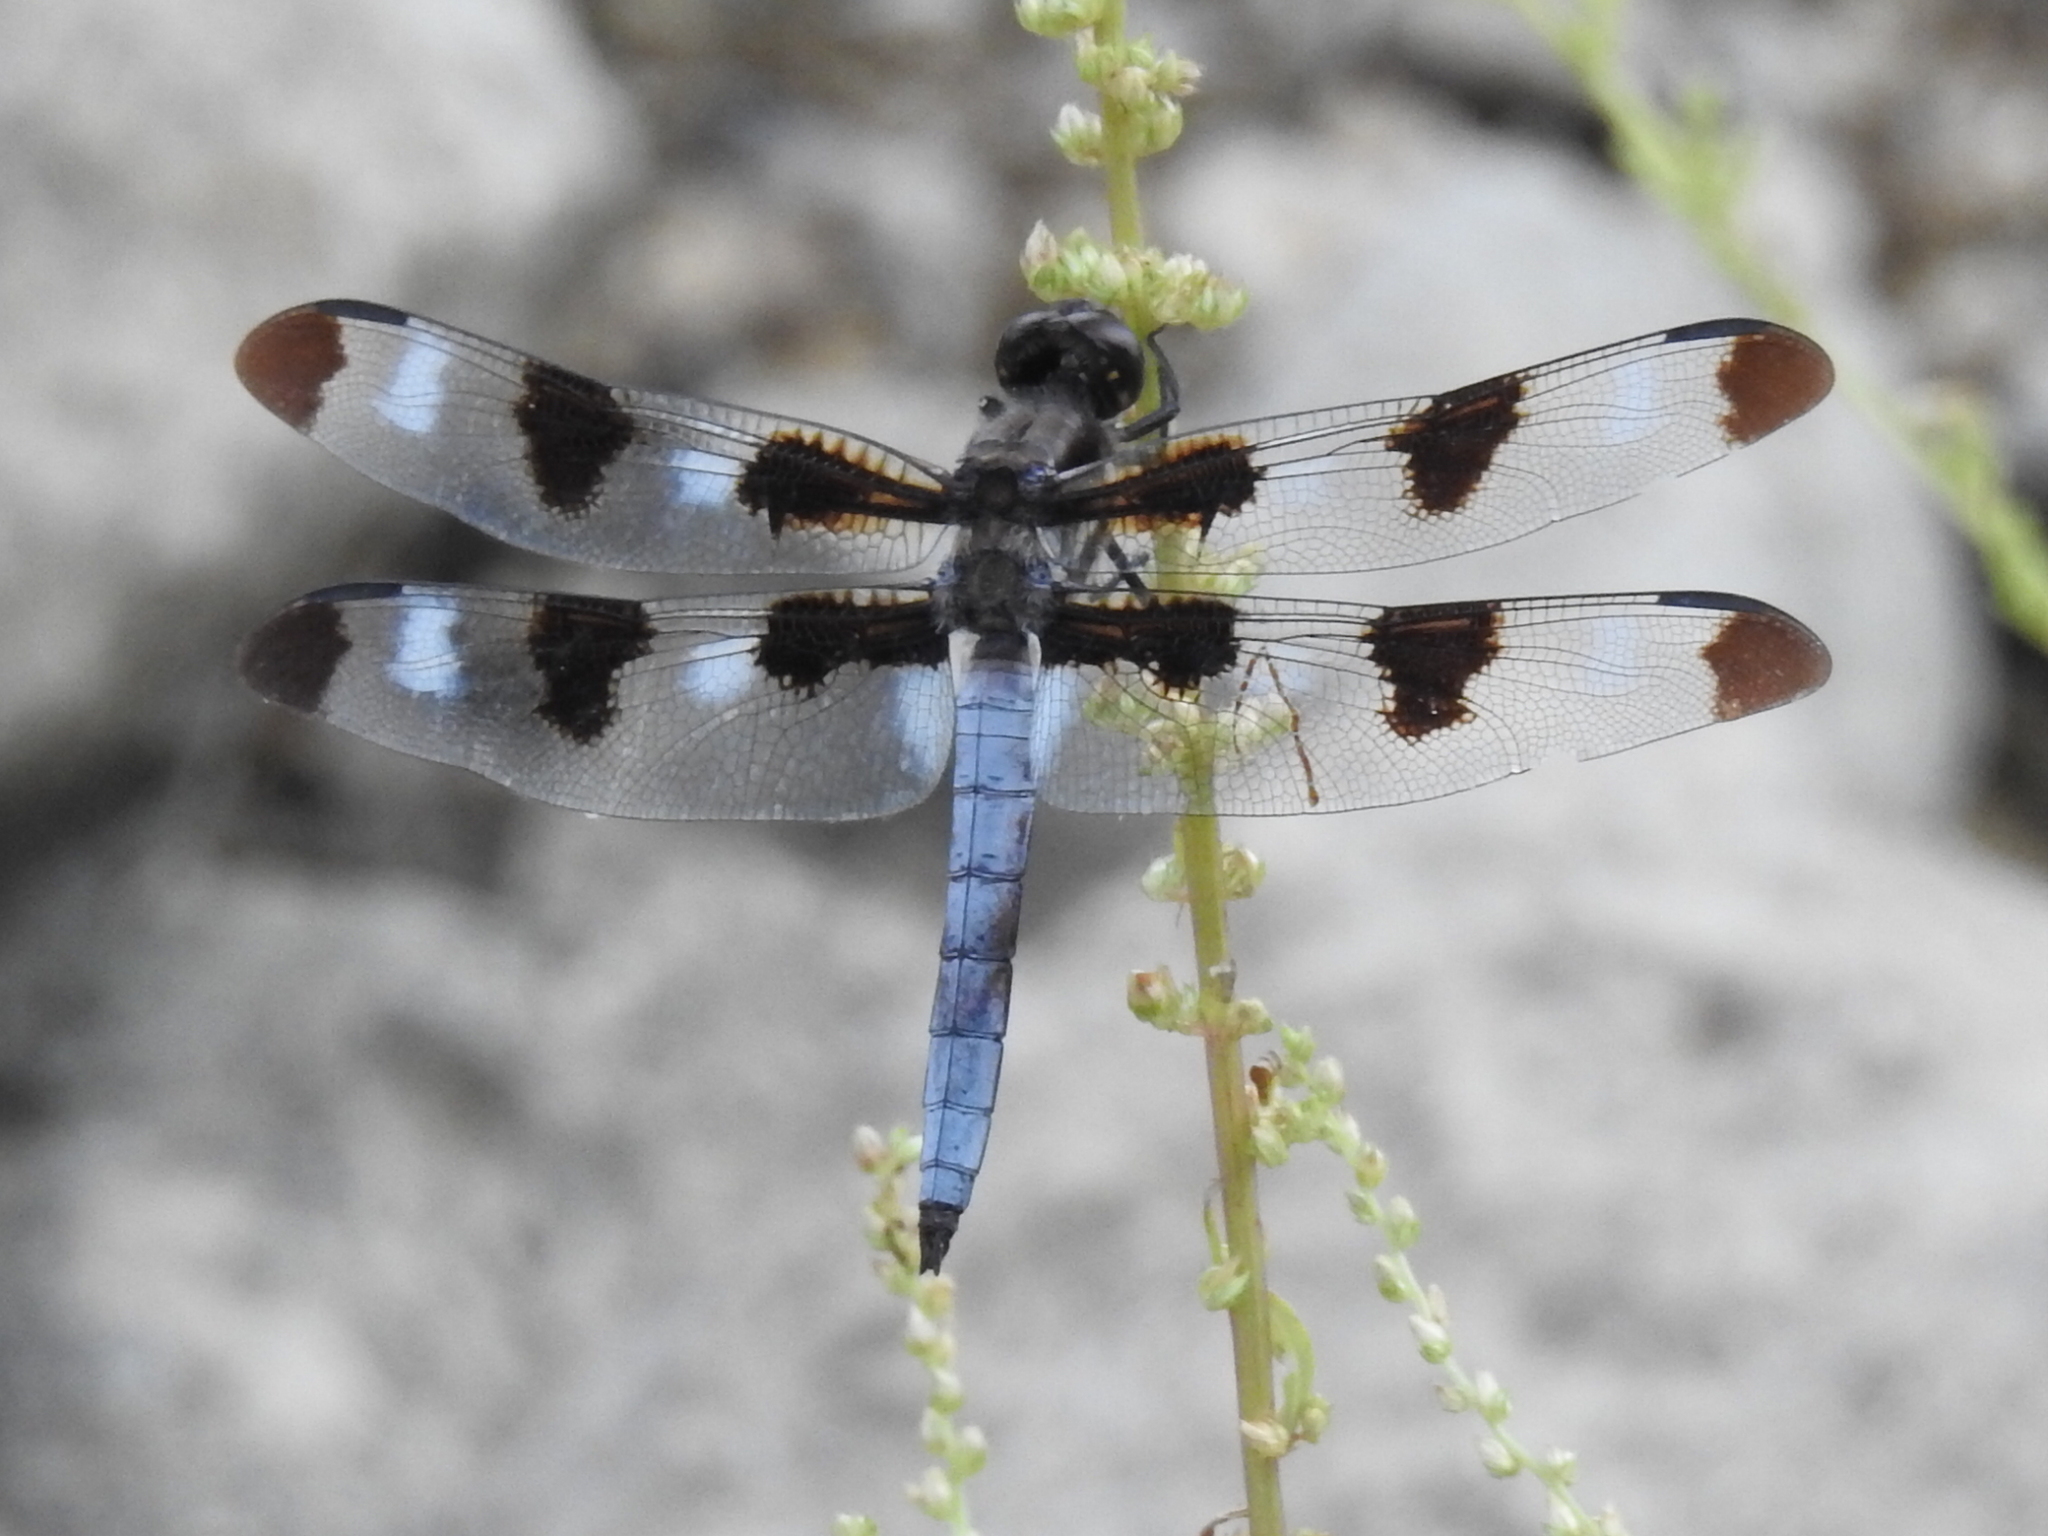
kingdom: Animalia
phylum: Arthropoda
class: Insecta
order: Odonata
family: Libellulidae
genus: Libellula
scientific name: Libellula pulchella
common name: Twelve-spotted skimmer
